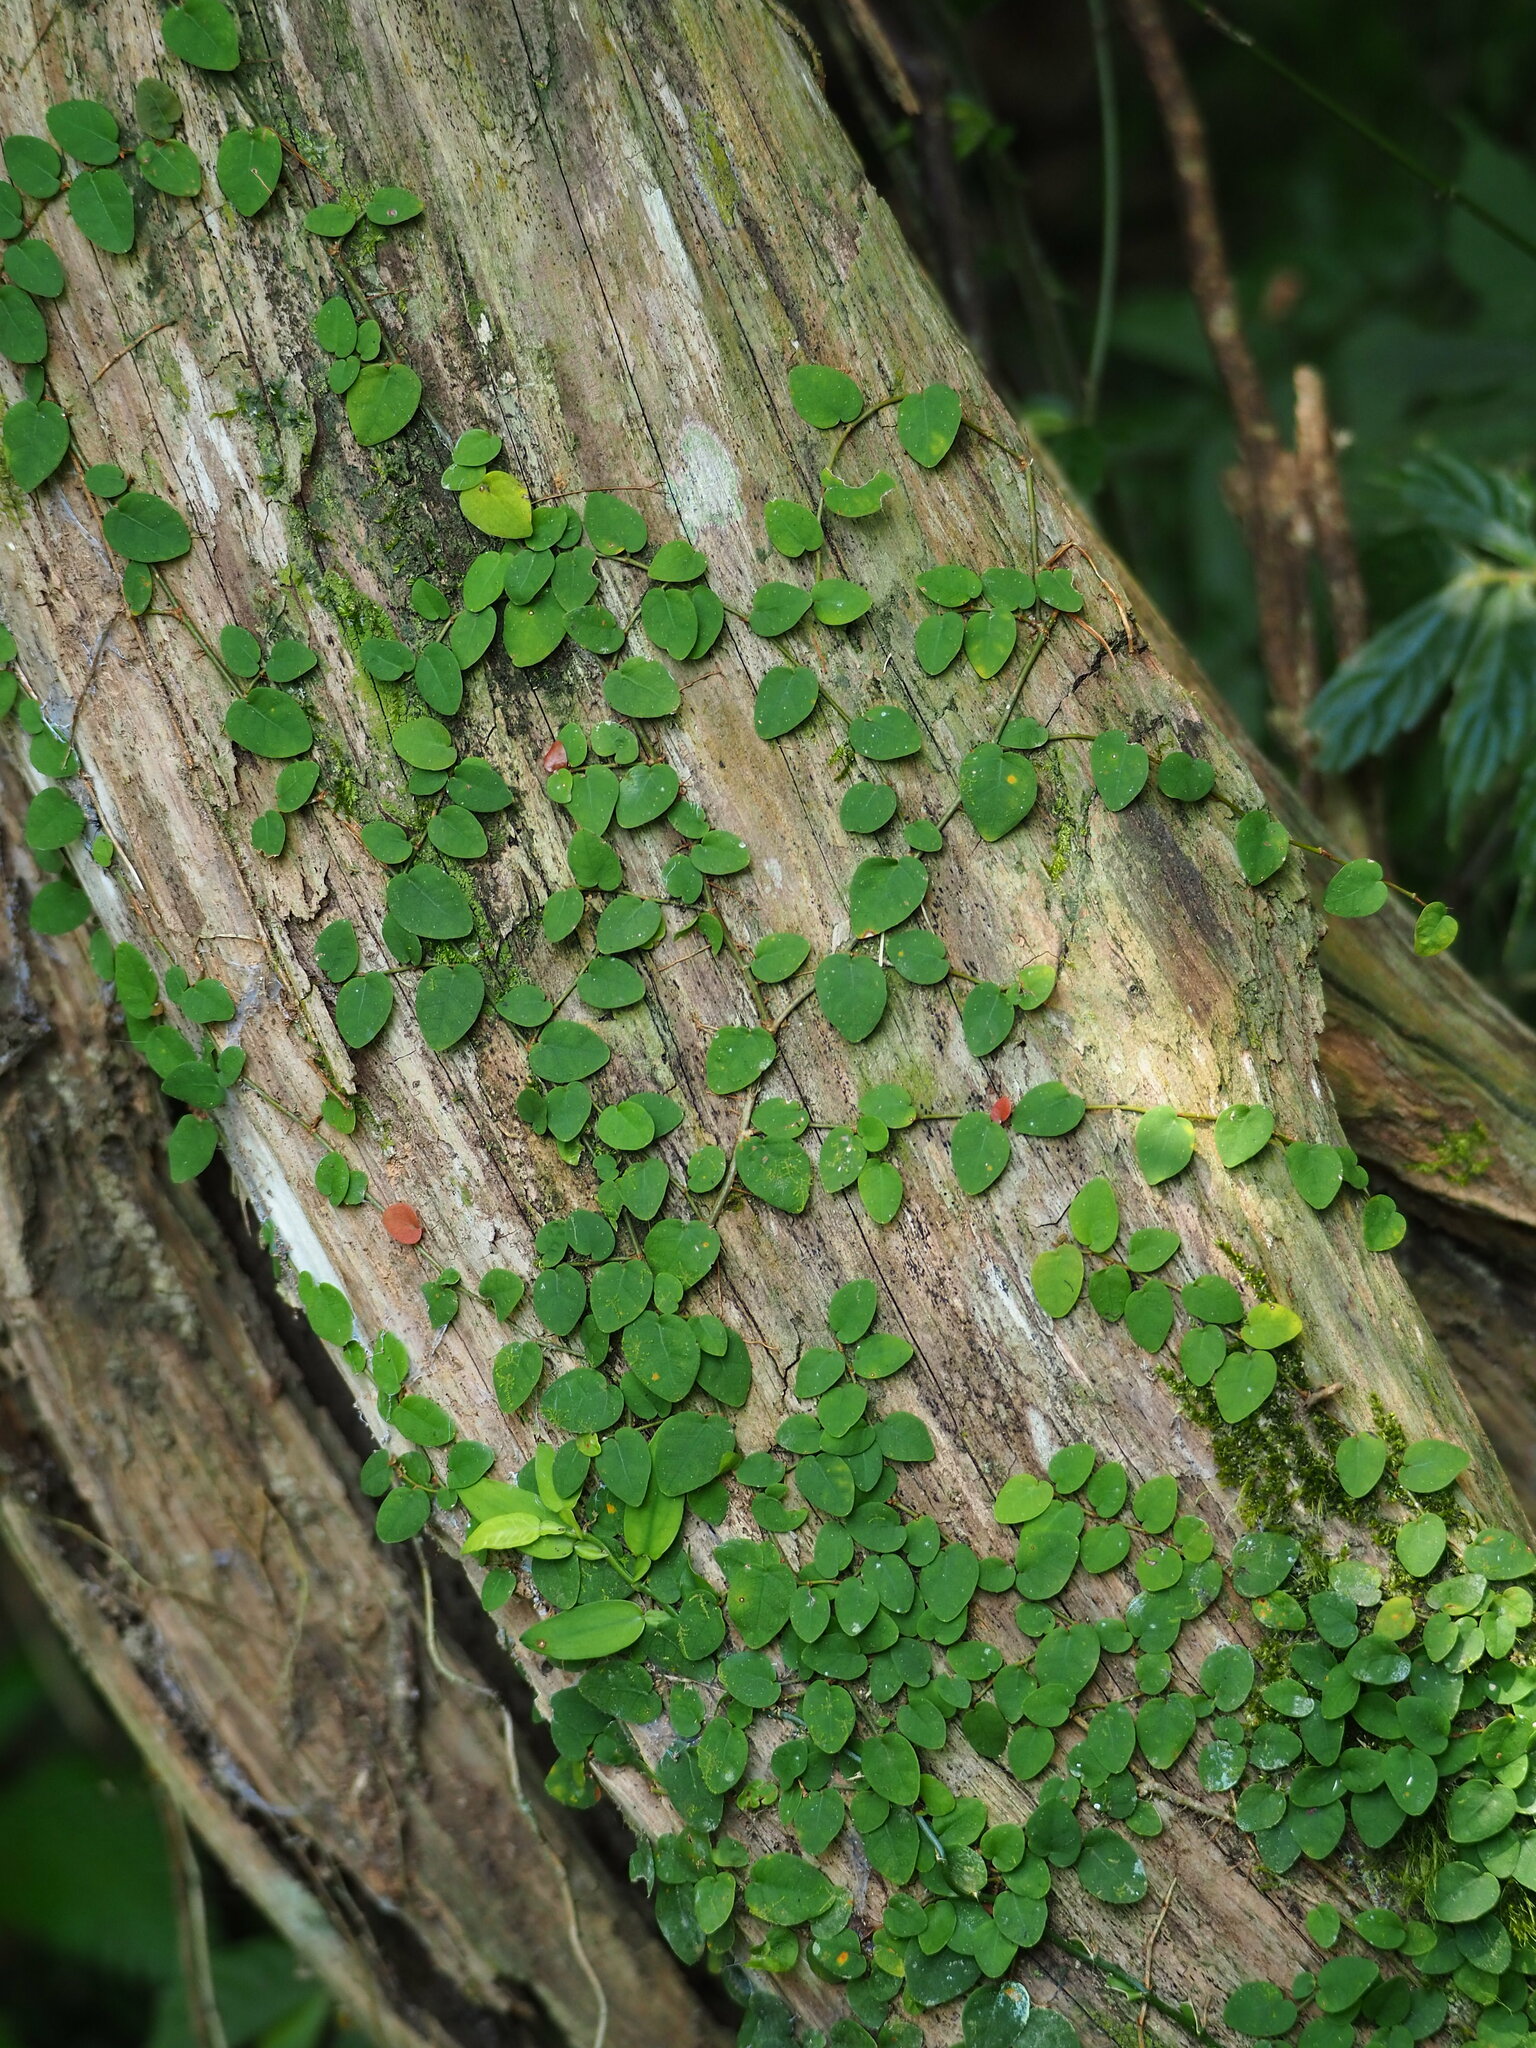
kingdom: Plantae
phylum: Tracheophyta
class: Magnoliopsida
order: Rosales
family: Moraceae
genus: Ficus
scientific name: Ficus pumila
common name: Climbingfig
